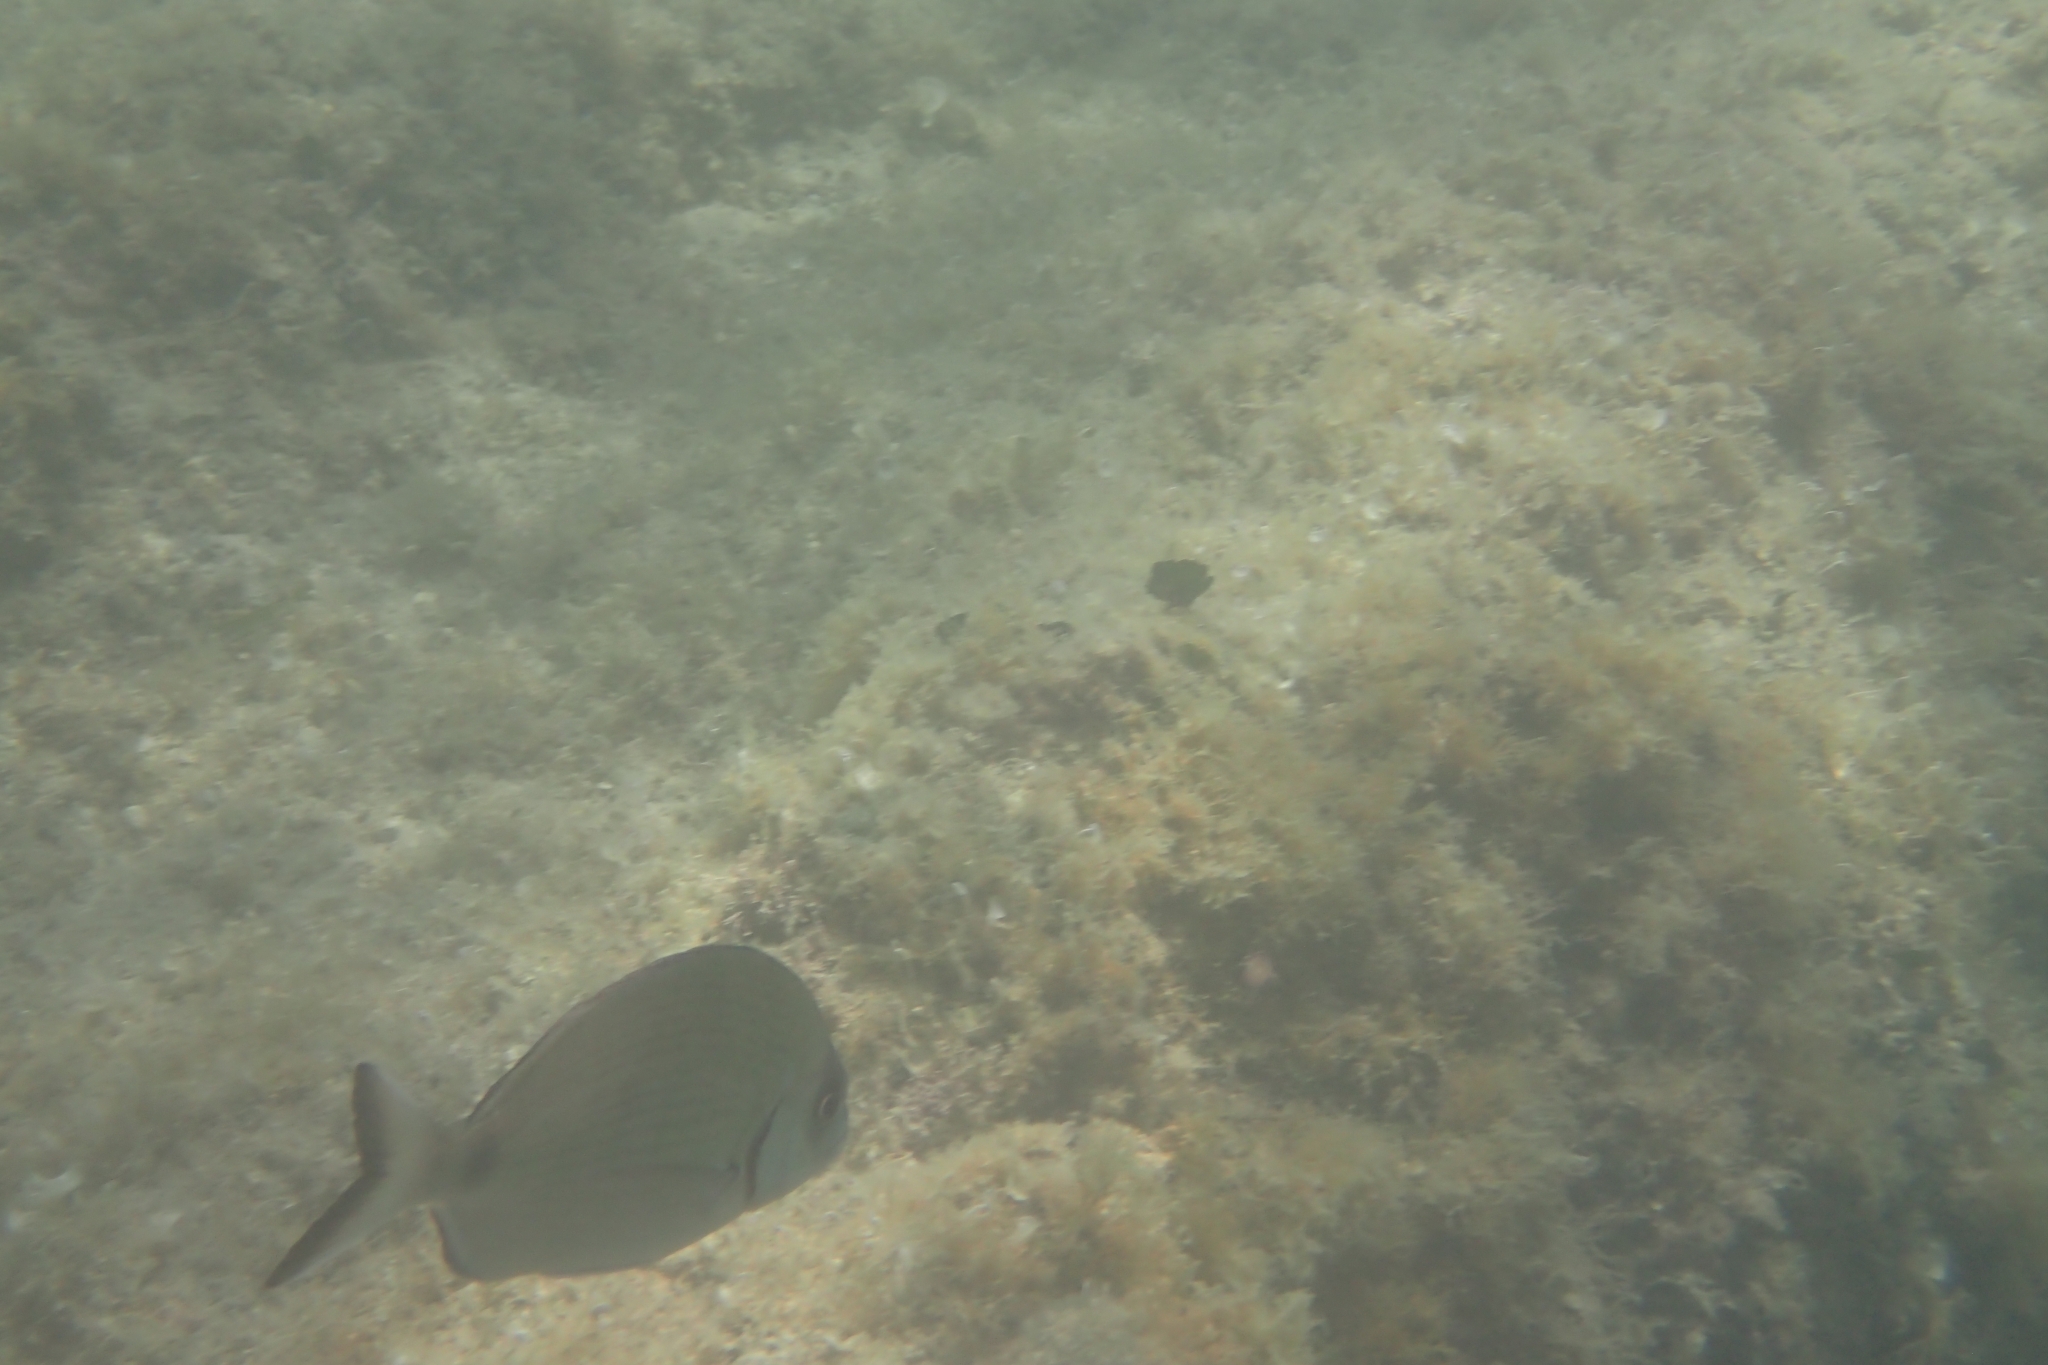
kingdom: Animalia
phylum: Chordata
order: Perciformes
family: Sparidae
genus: Diplodus
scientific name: Diplodus sargus
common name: White seabream
